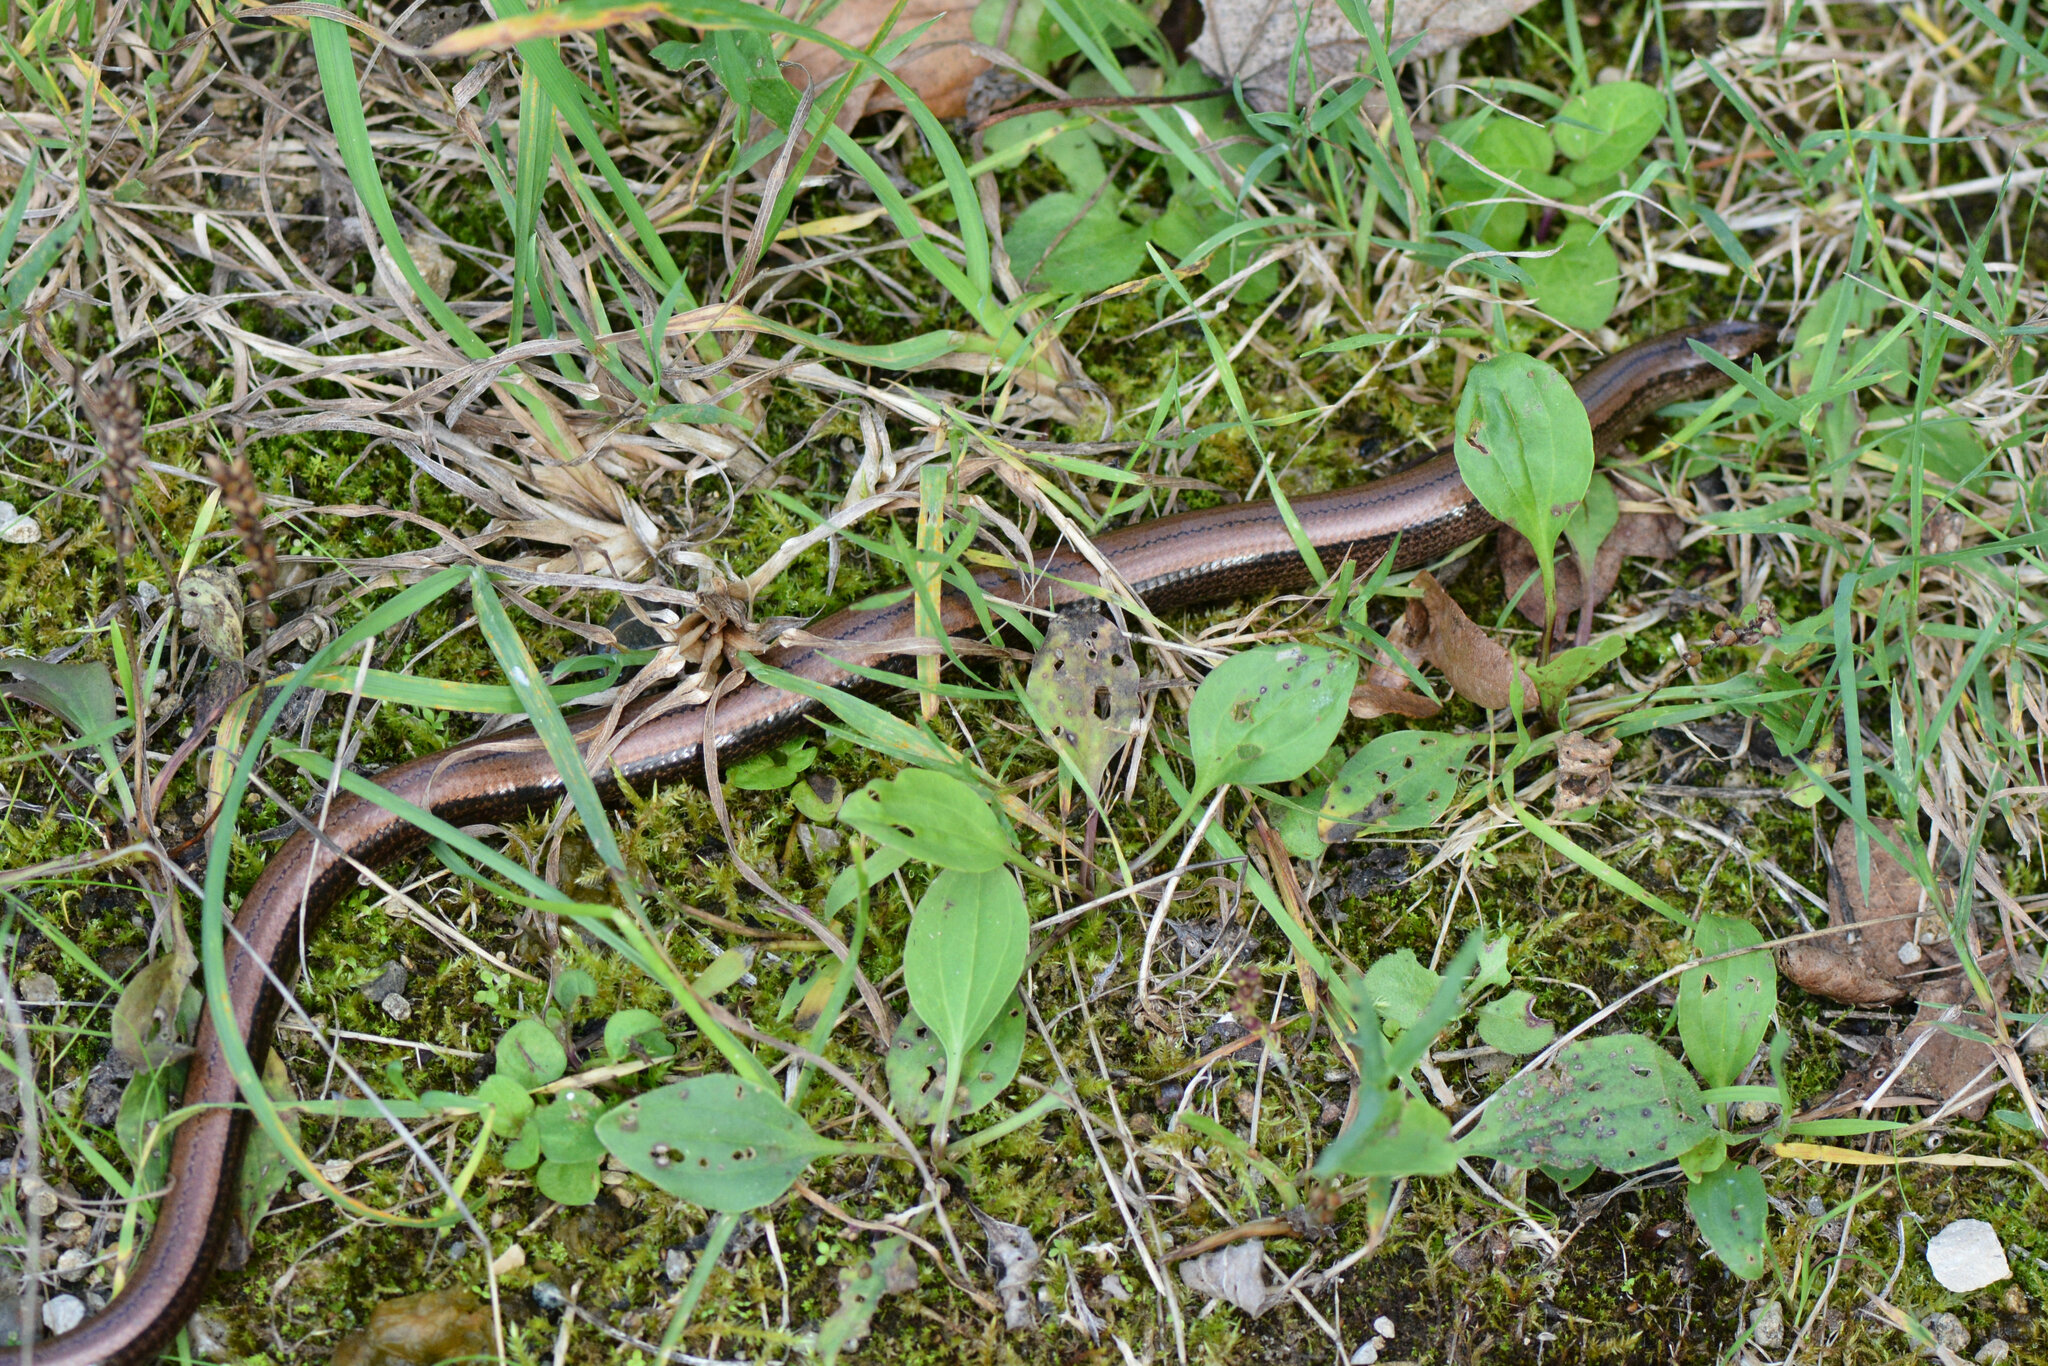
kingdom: Animalia
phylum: Chordata
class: Squamata
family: Anguidae
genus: Anguis
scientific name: Anguis fragilis
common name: Slow worm
